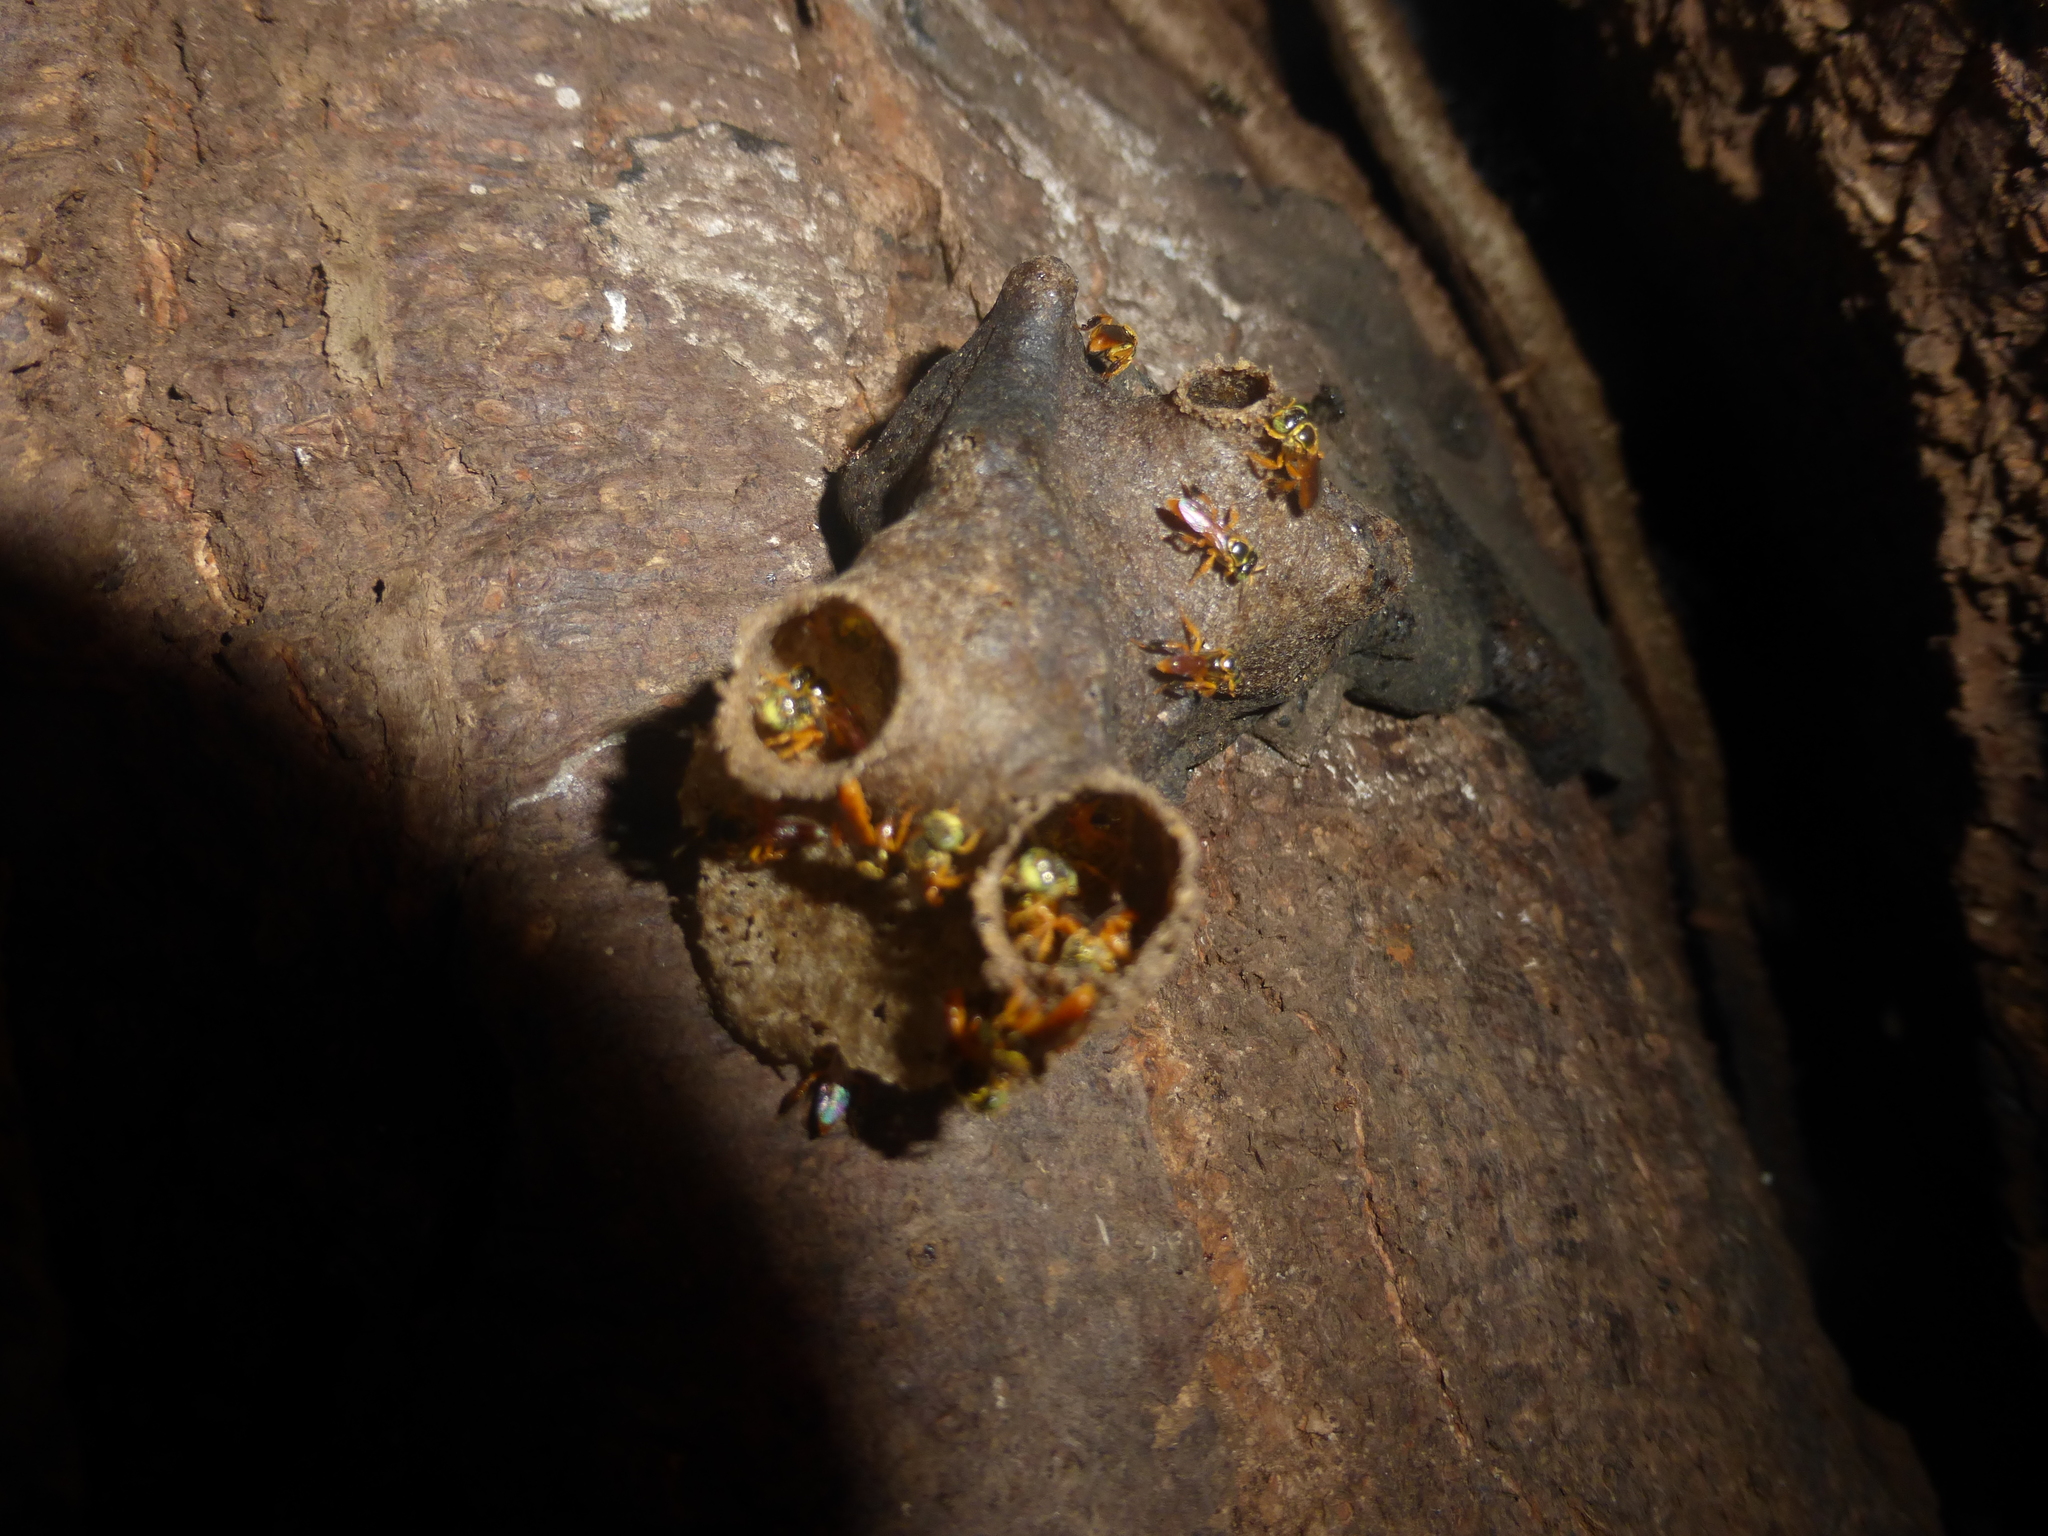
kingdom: Animalia
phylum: Arthropoda
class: Insecta
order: Hymenoptera
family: Apidae
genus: Tetragonisca
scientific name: Tetragonisca angustula
